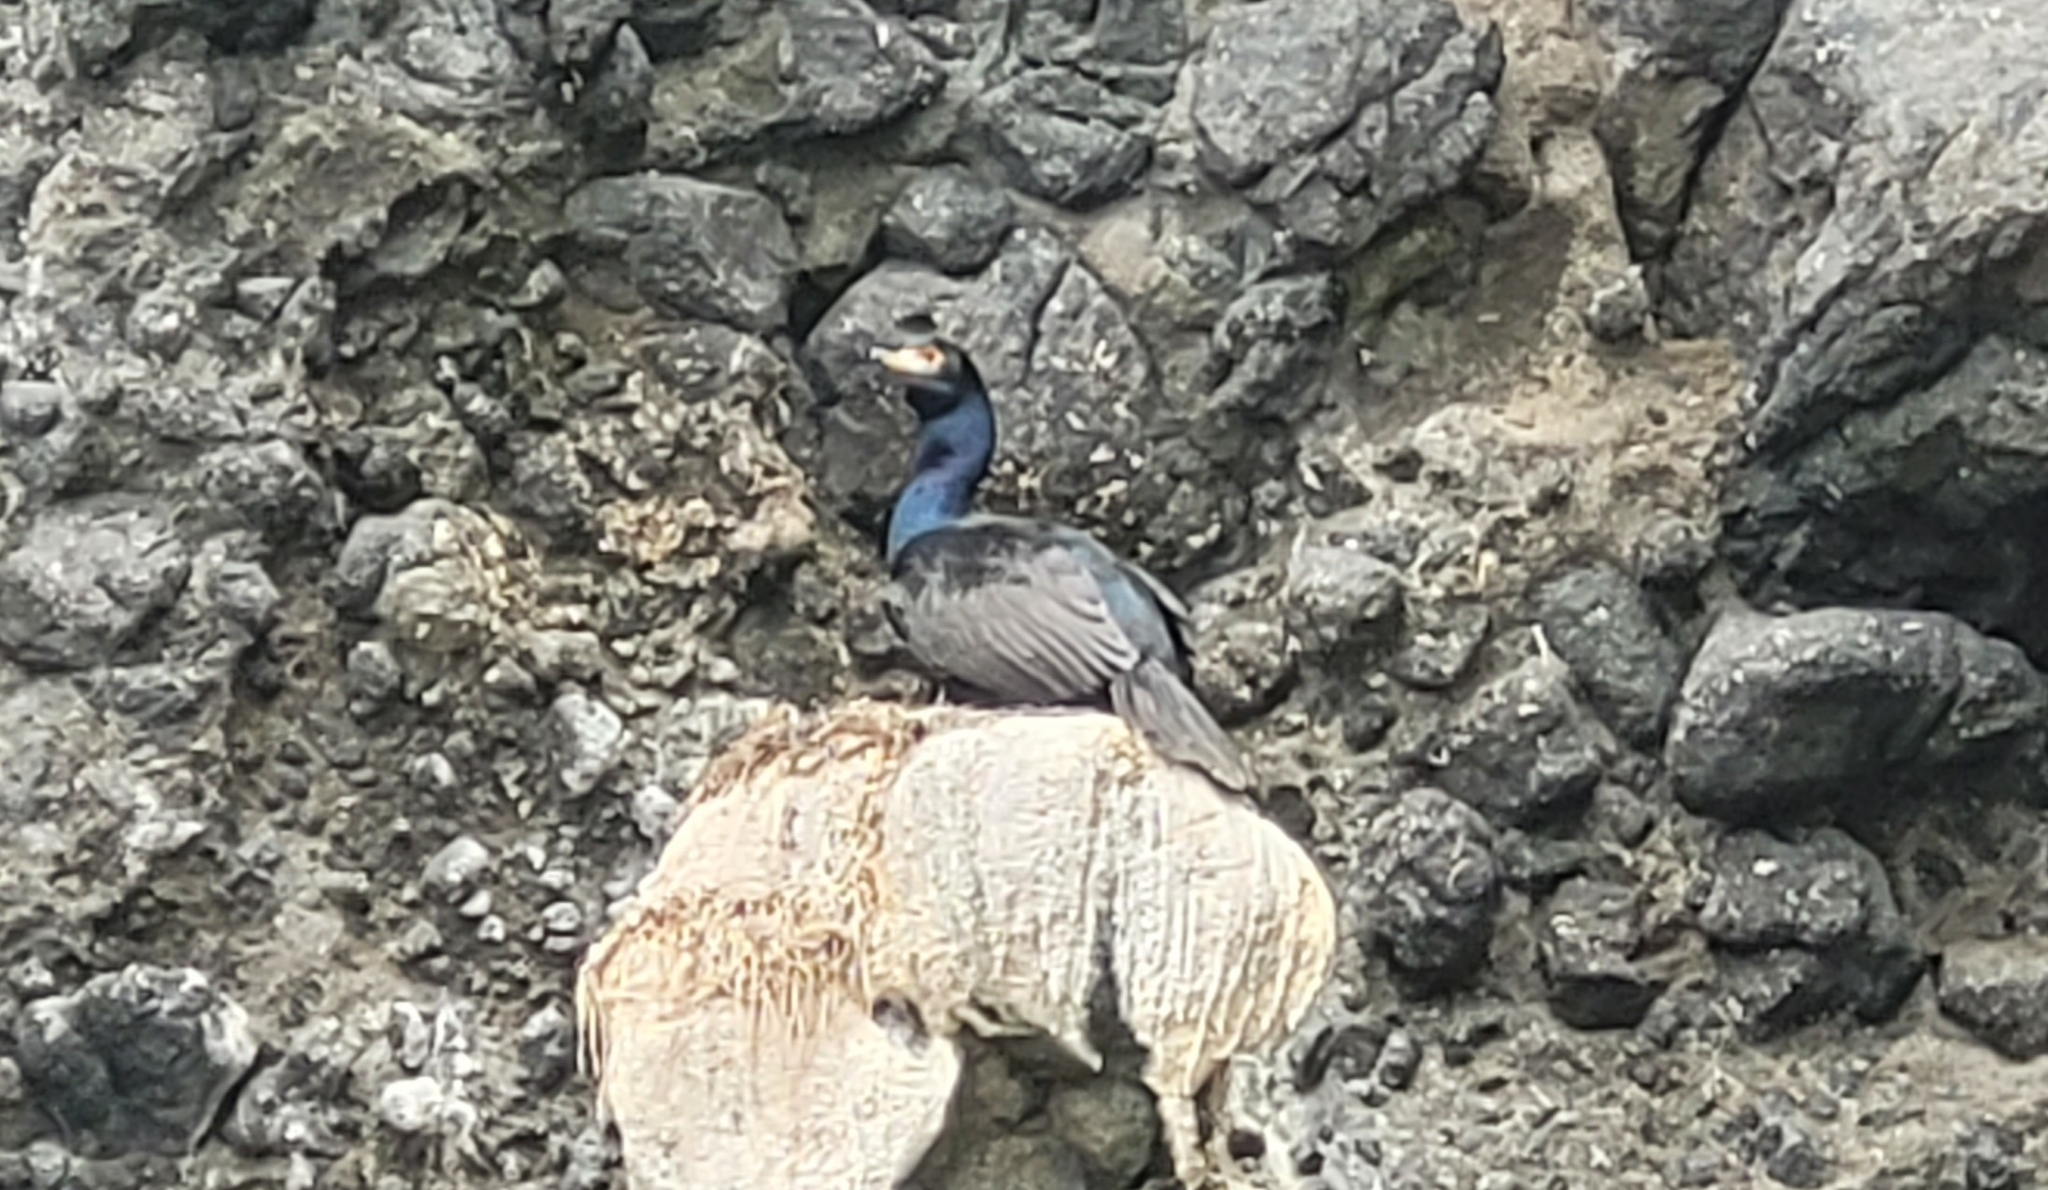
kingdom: Animalia
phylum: Chordata
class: Aves
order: Suliformes
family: Phalacrocoracidae
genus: Phalacrocorax
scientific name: Phalacrocorax urile
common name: Red-faced cormorant
